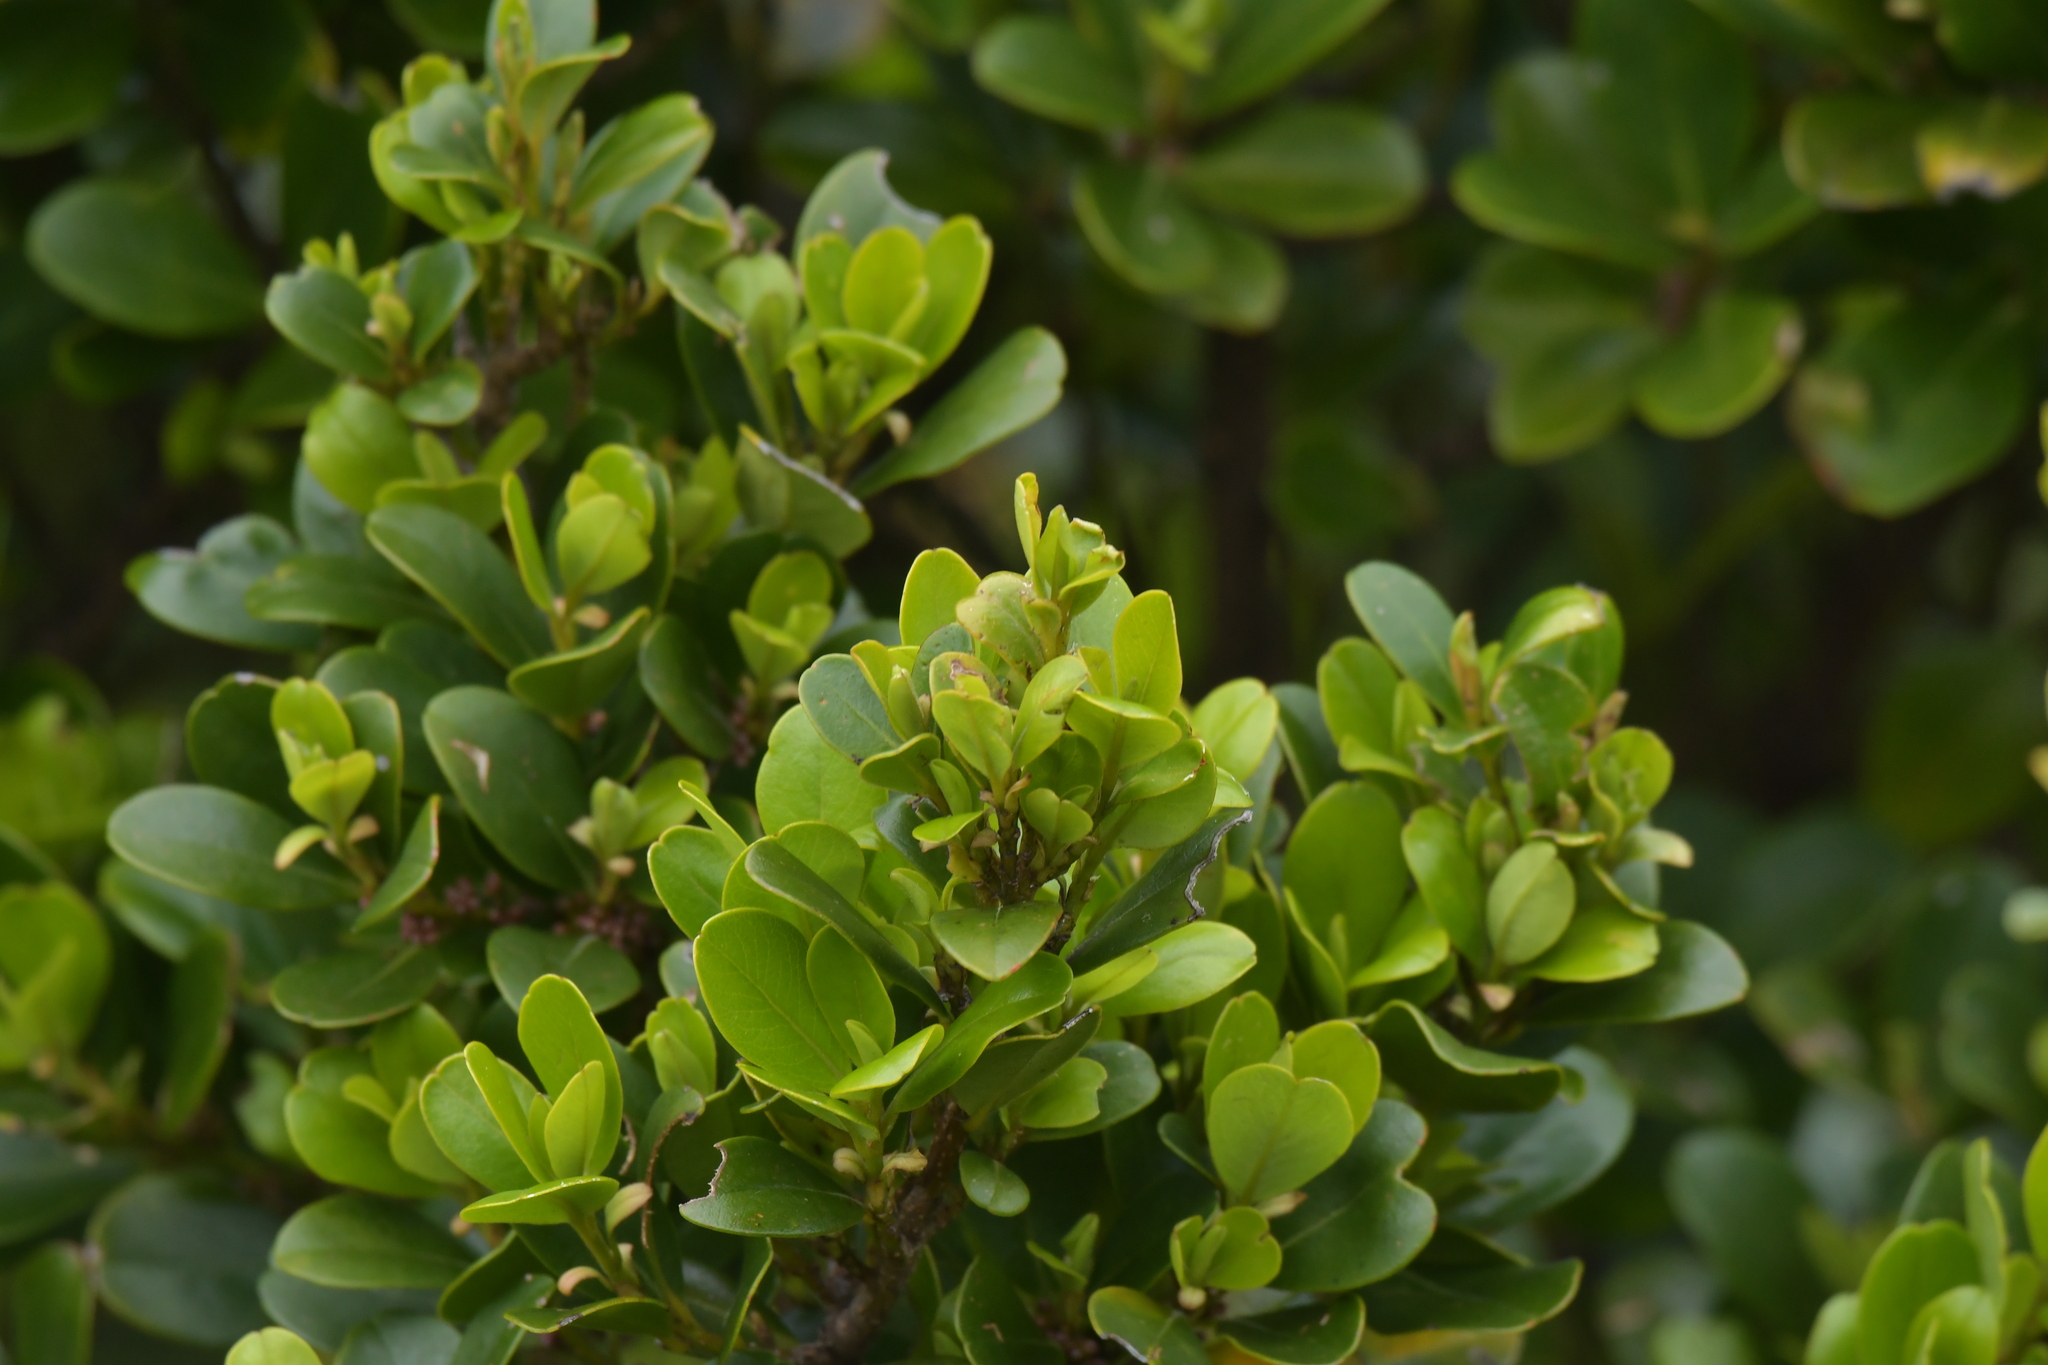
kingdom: Plantae
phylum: Tracheophyta
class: Magnoliopsida
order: Ericales
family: Primulaceae
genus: Myrsine
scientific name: Myrsine chathamica
